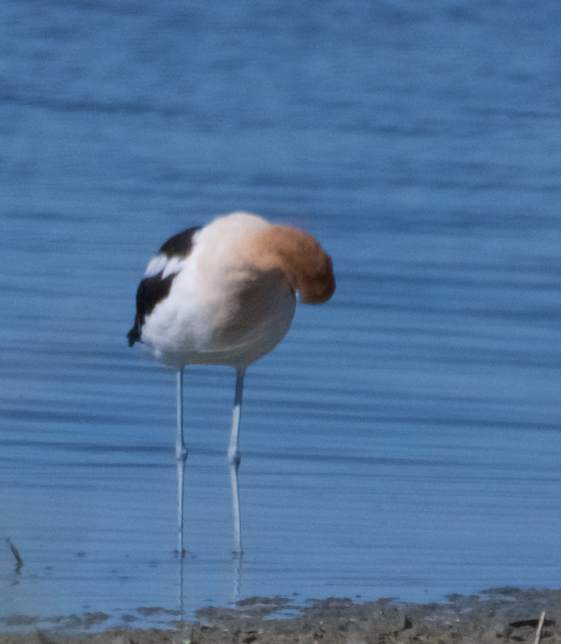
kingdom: Animalia
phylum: Chordata
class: Aves
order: Charadriiformes
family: Recurvirostridae
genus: Recurvirostra
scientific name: Recurvirostra americana
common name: American avocet
